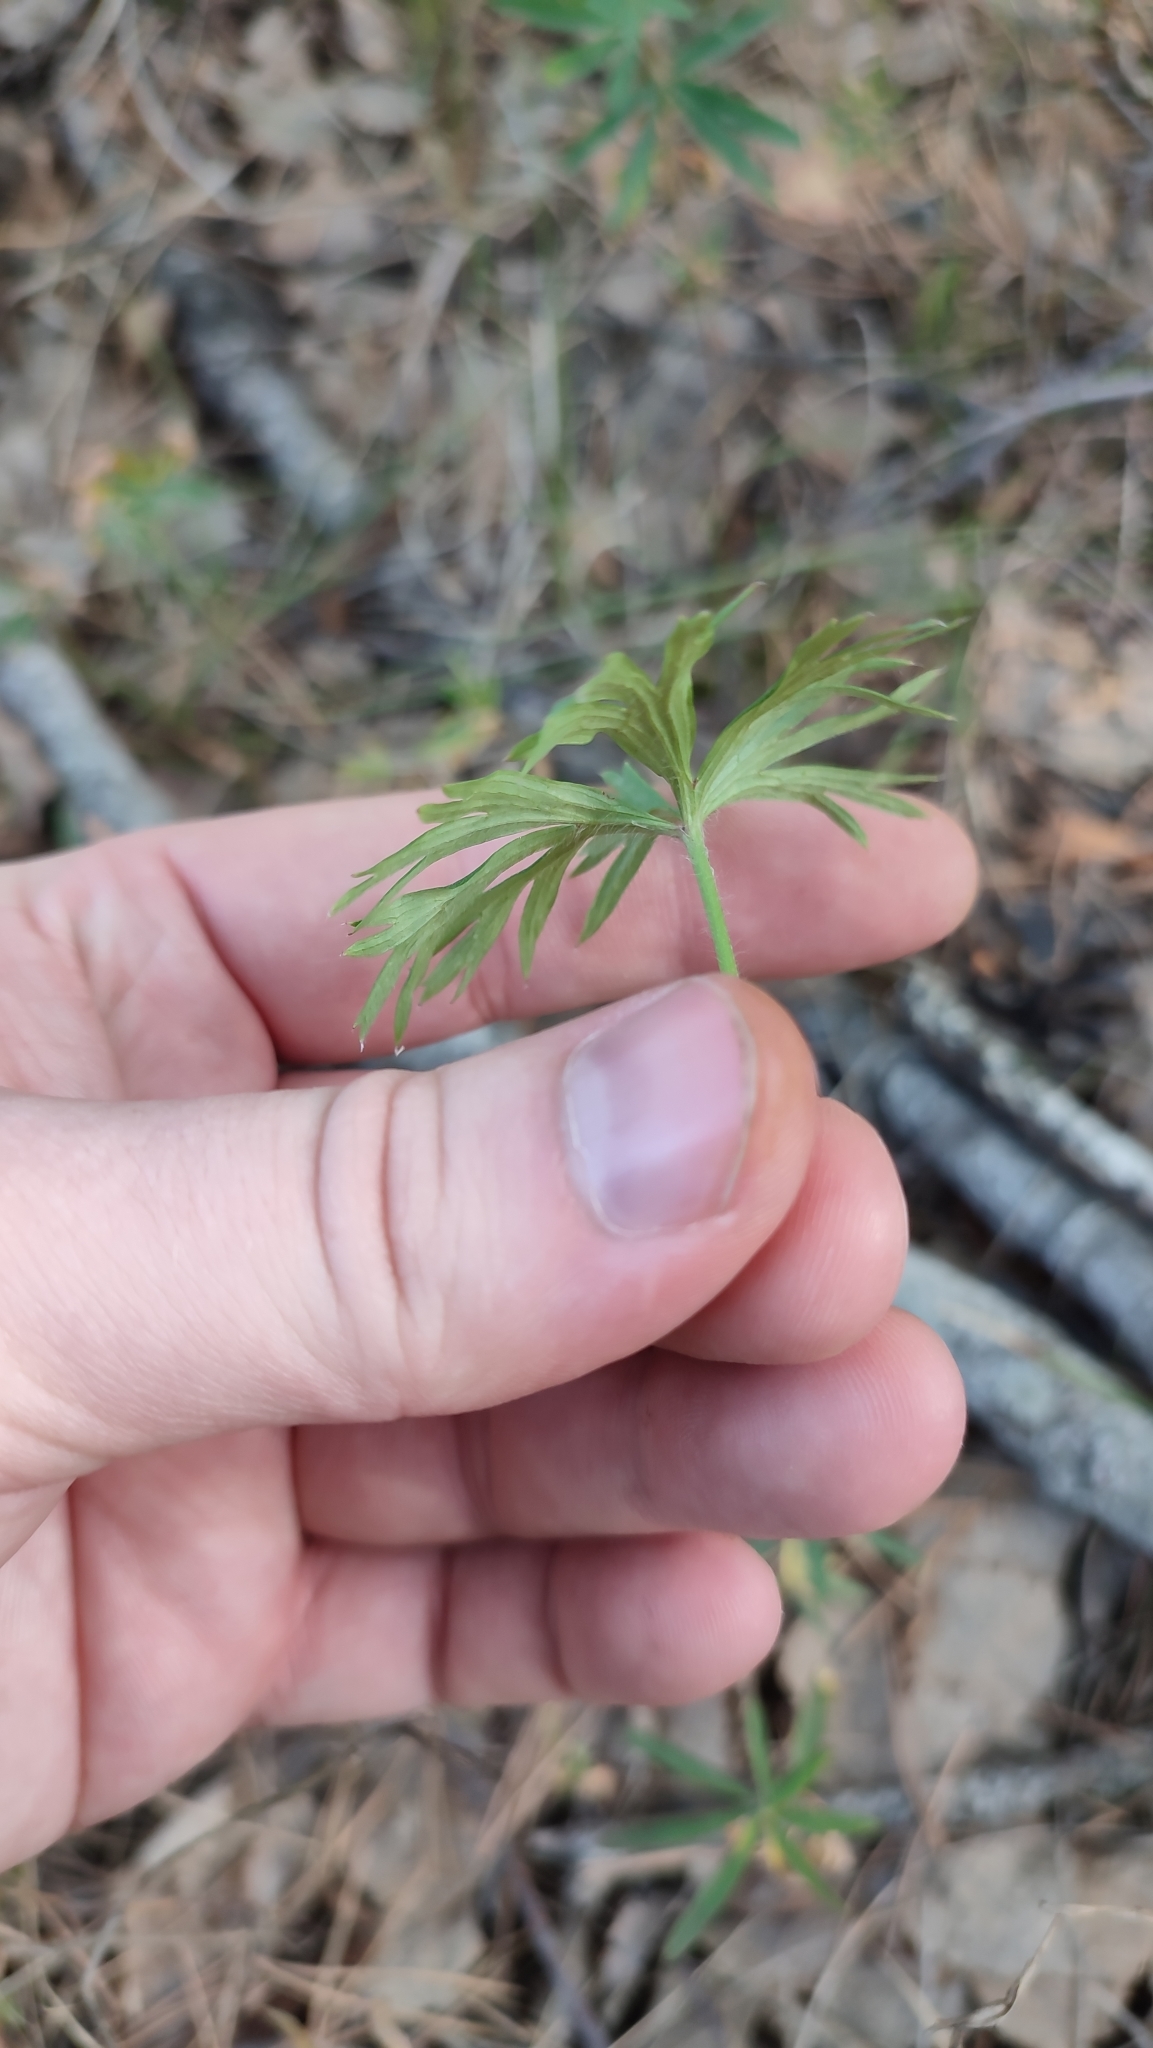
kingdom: Plantae
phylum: Tracheophyta
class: Magnoliopsida
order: Ranunculales
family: Ranunculaceae
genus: Pulsatilla
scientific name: Pulsatilla patens
